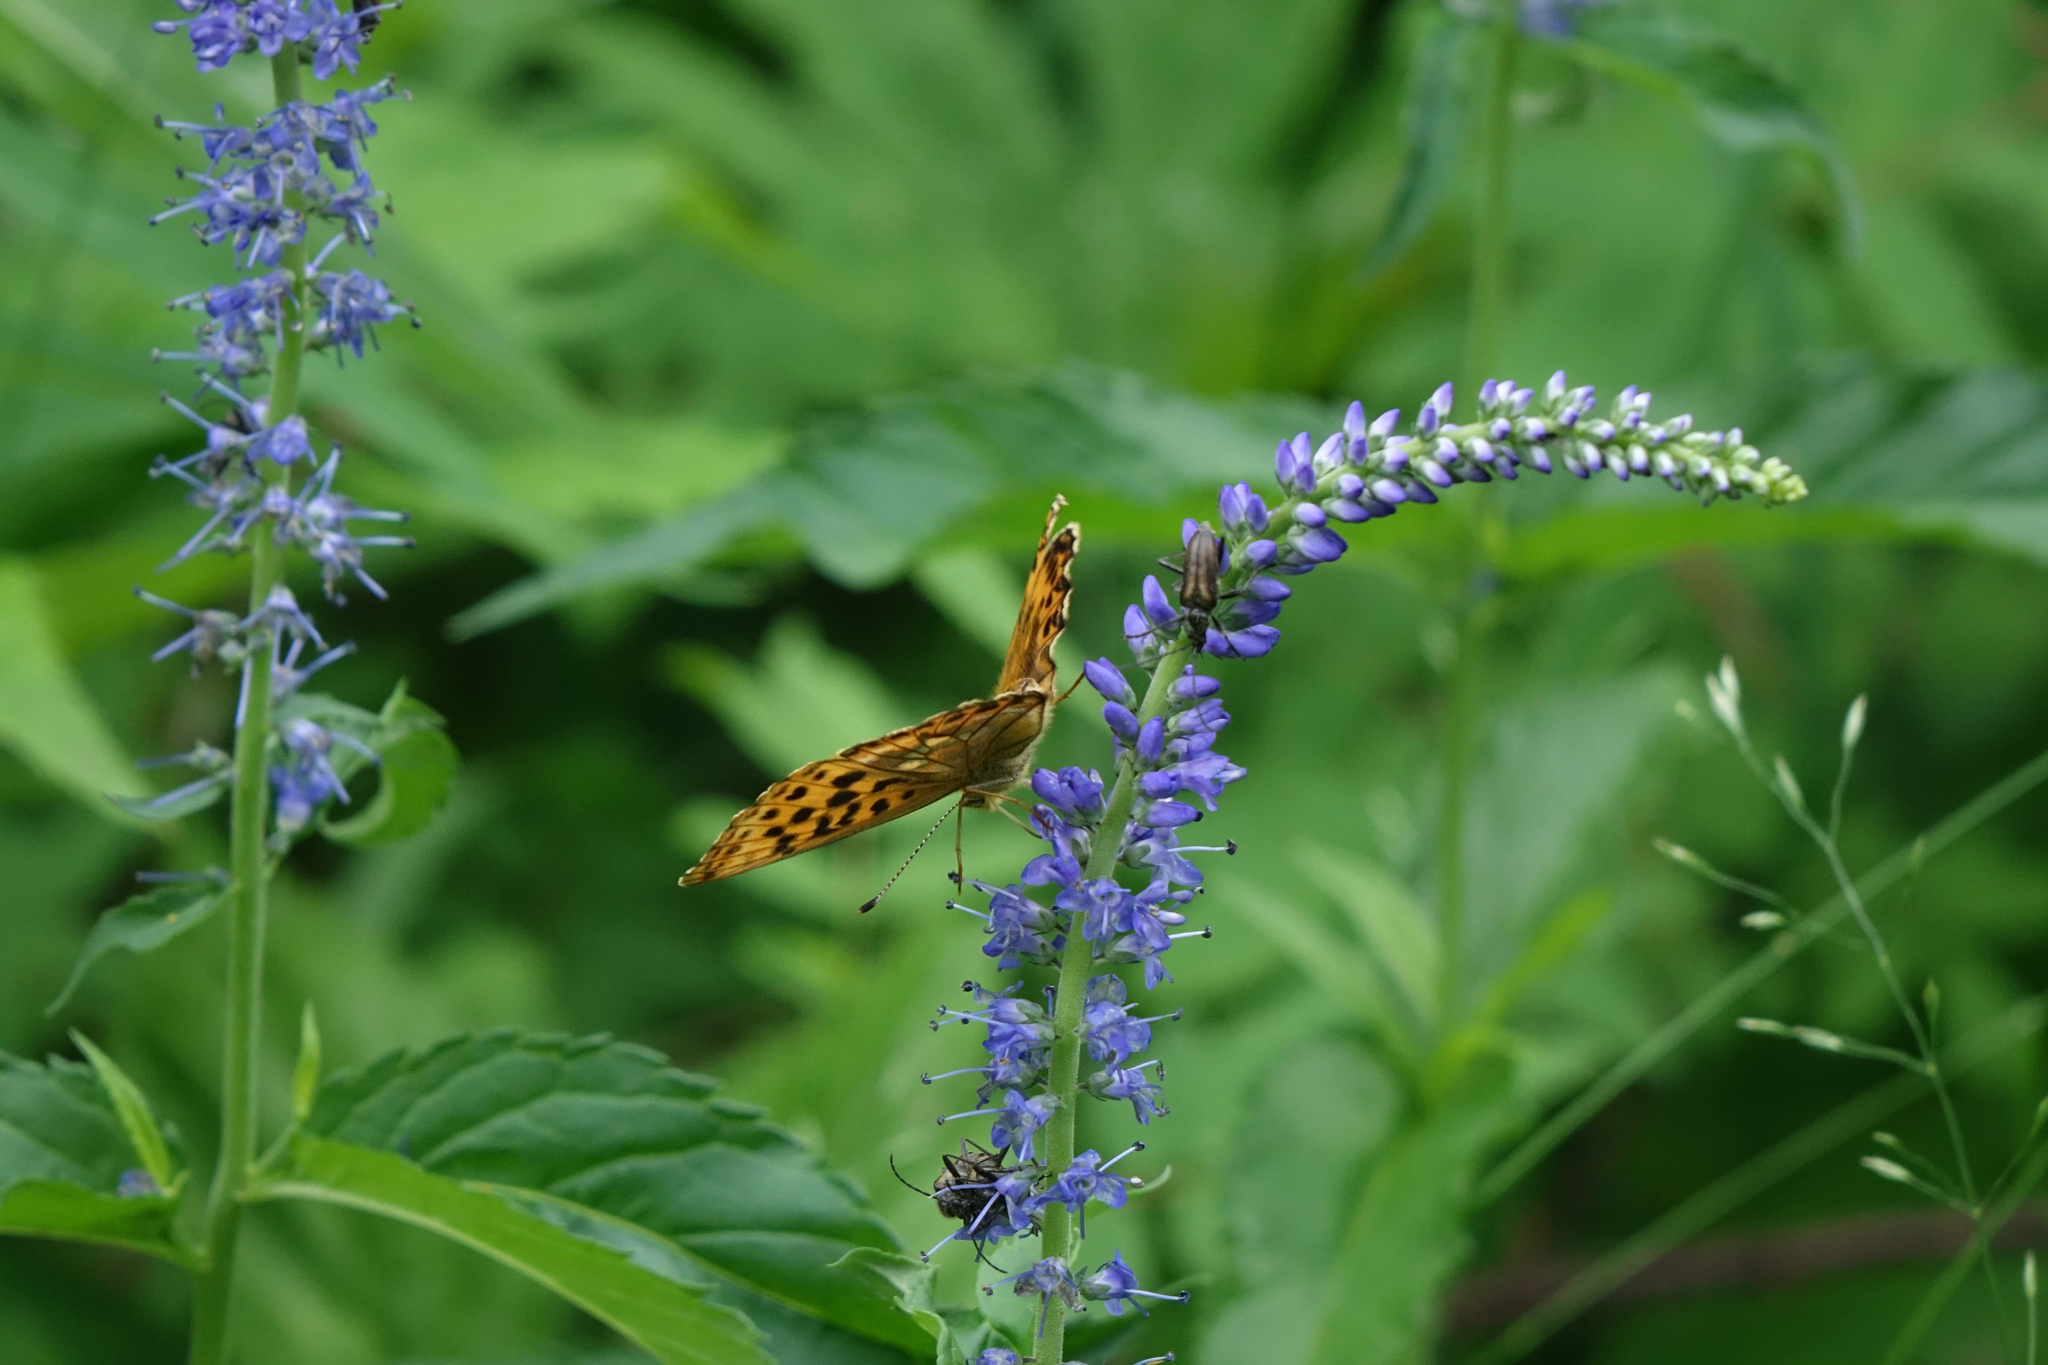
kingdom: Animalia
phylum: Arthropoda
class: Insecta
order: Lepidoptera
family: Nymphalidae
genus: Boloria
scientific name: Boloria thore
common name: Thor's fritillary
